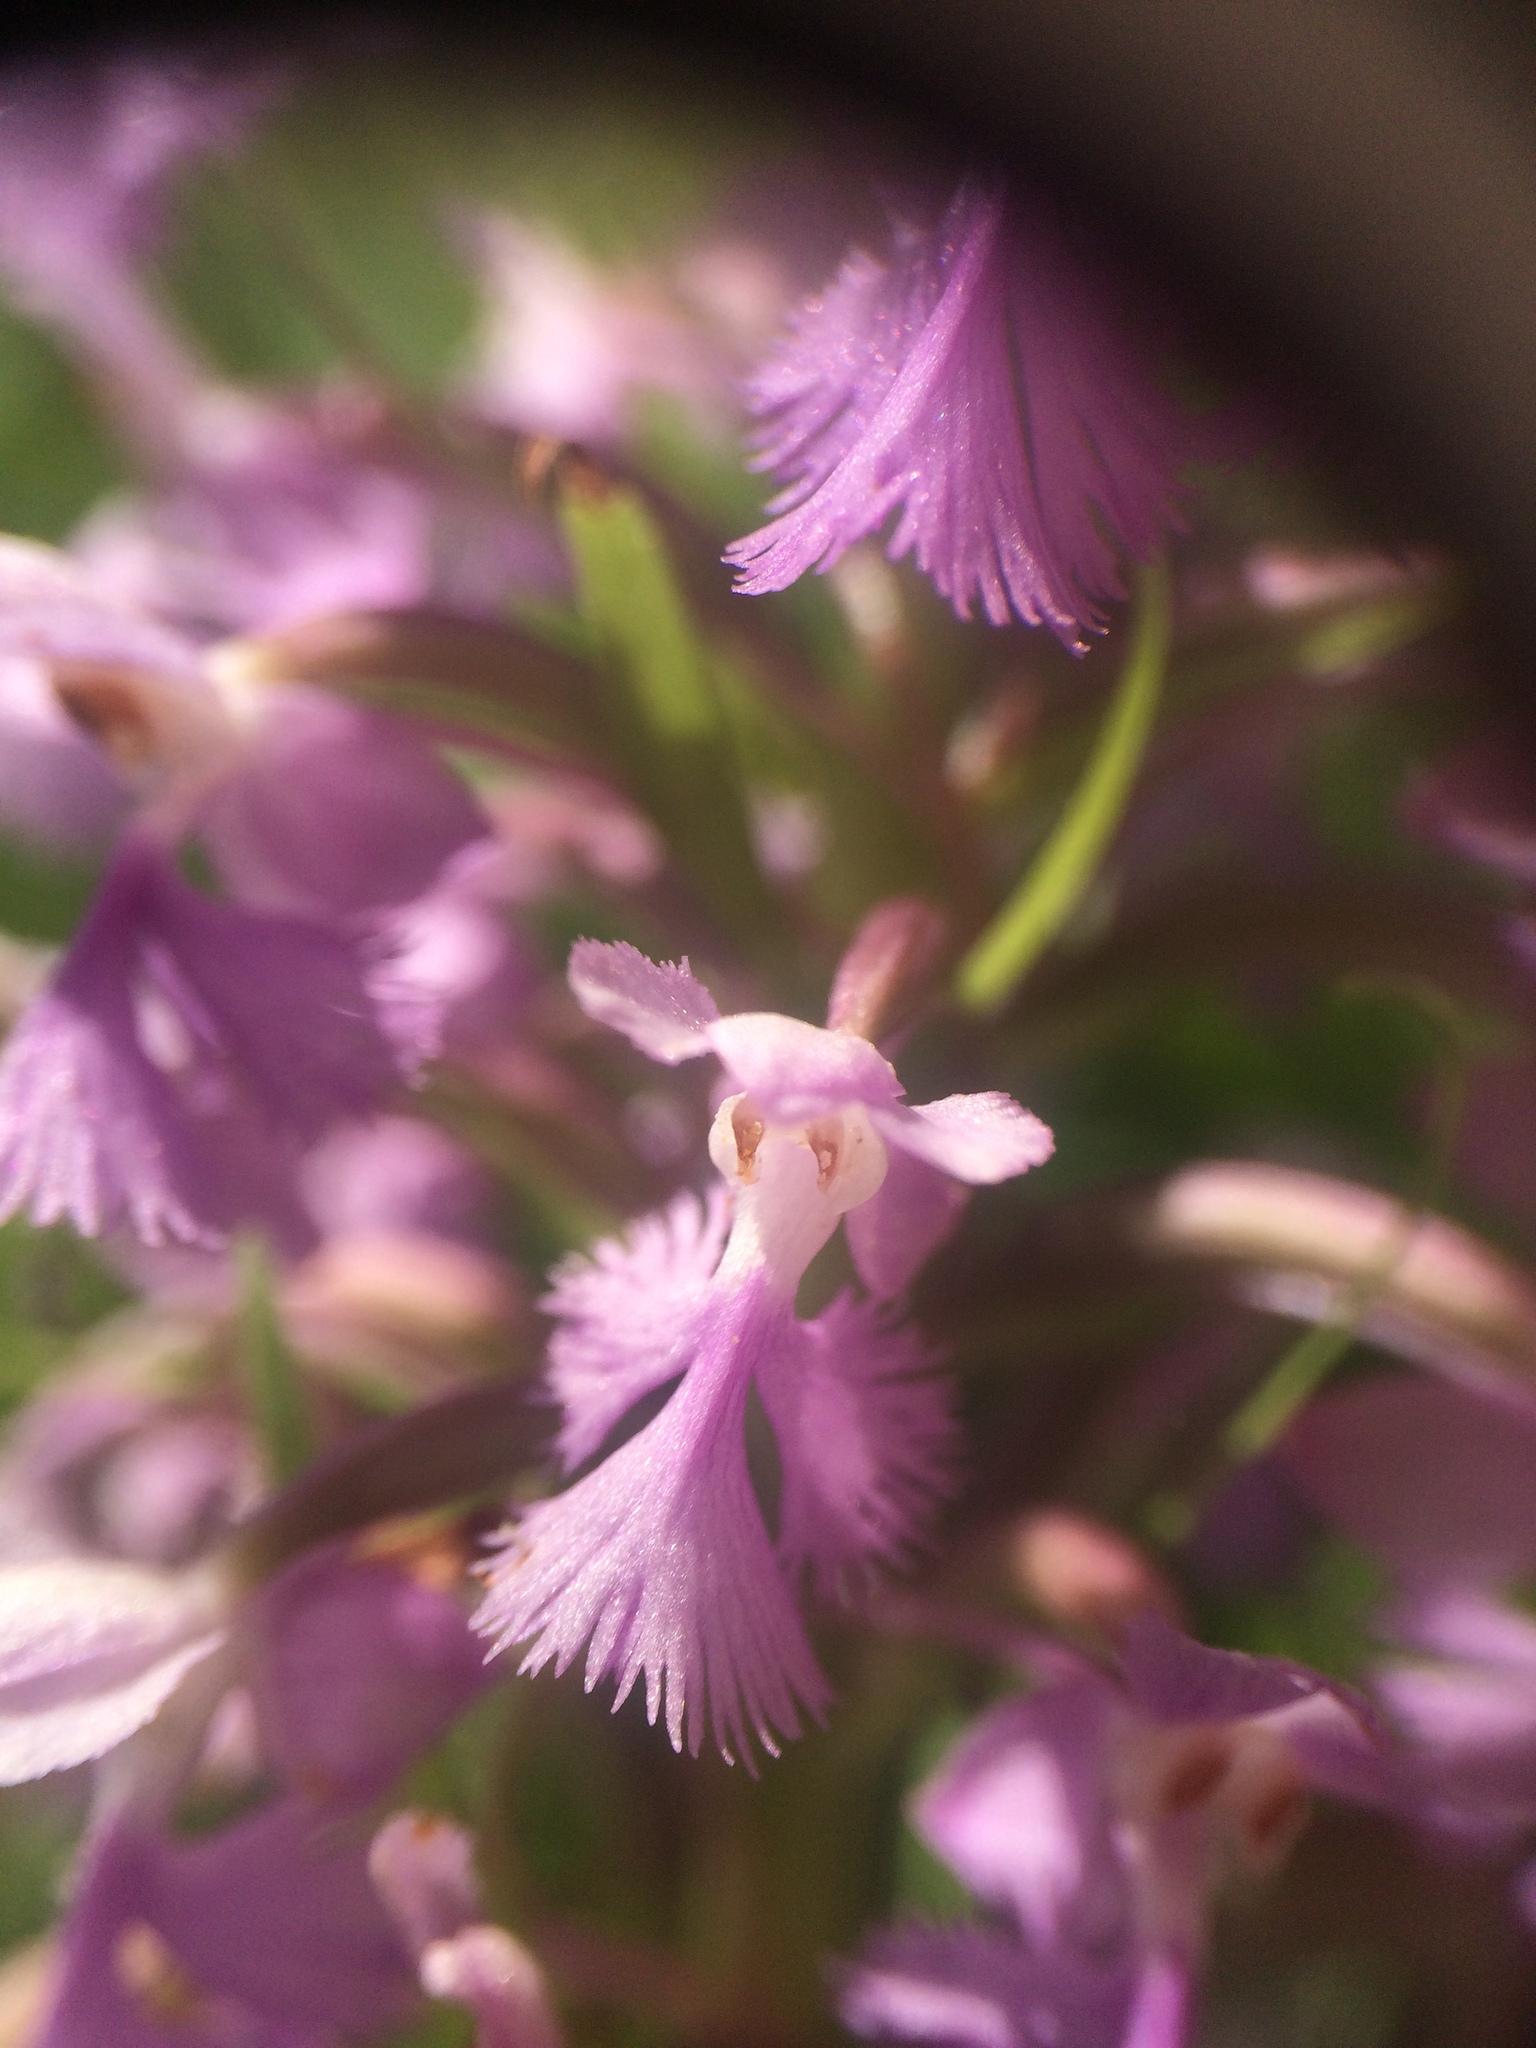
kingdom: Plantae
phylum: Tracheophyta
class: Liliopsida
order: Asparagales
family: Orchidaceae
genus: Platanthera
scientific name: Platanthera psycodes
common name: Lesser purple fringed orchid
